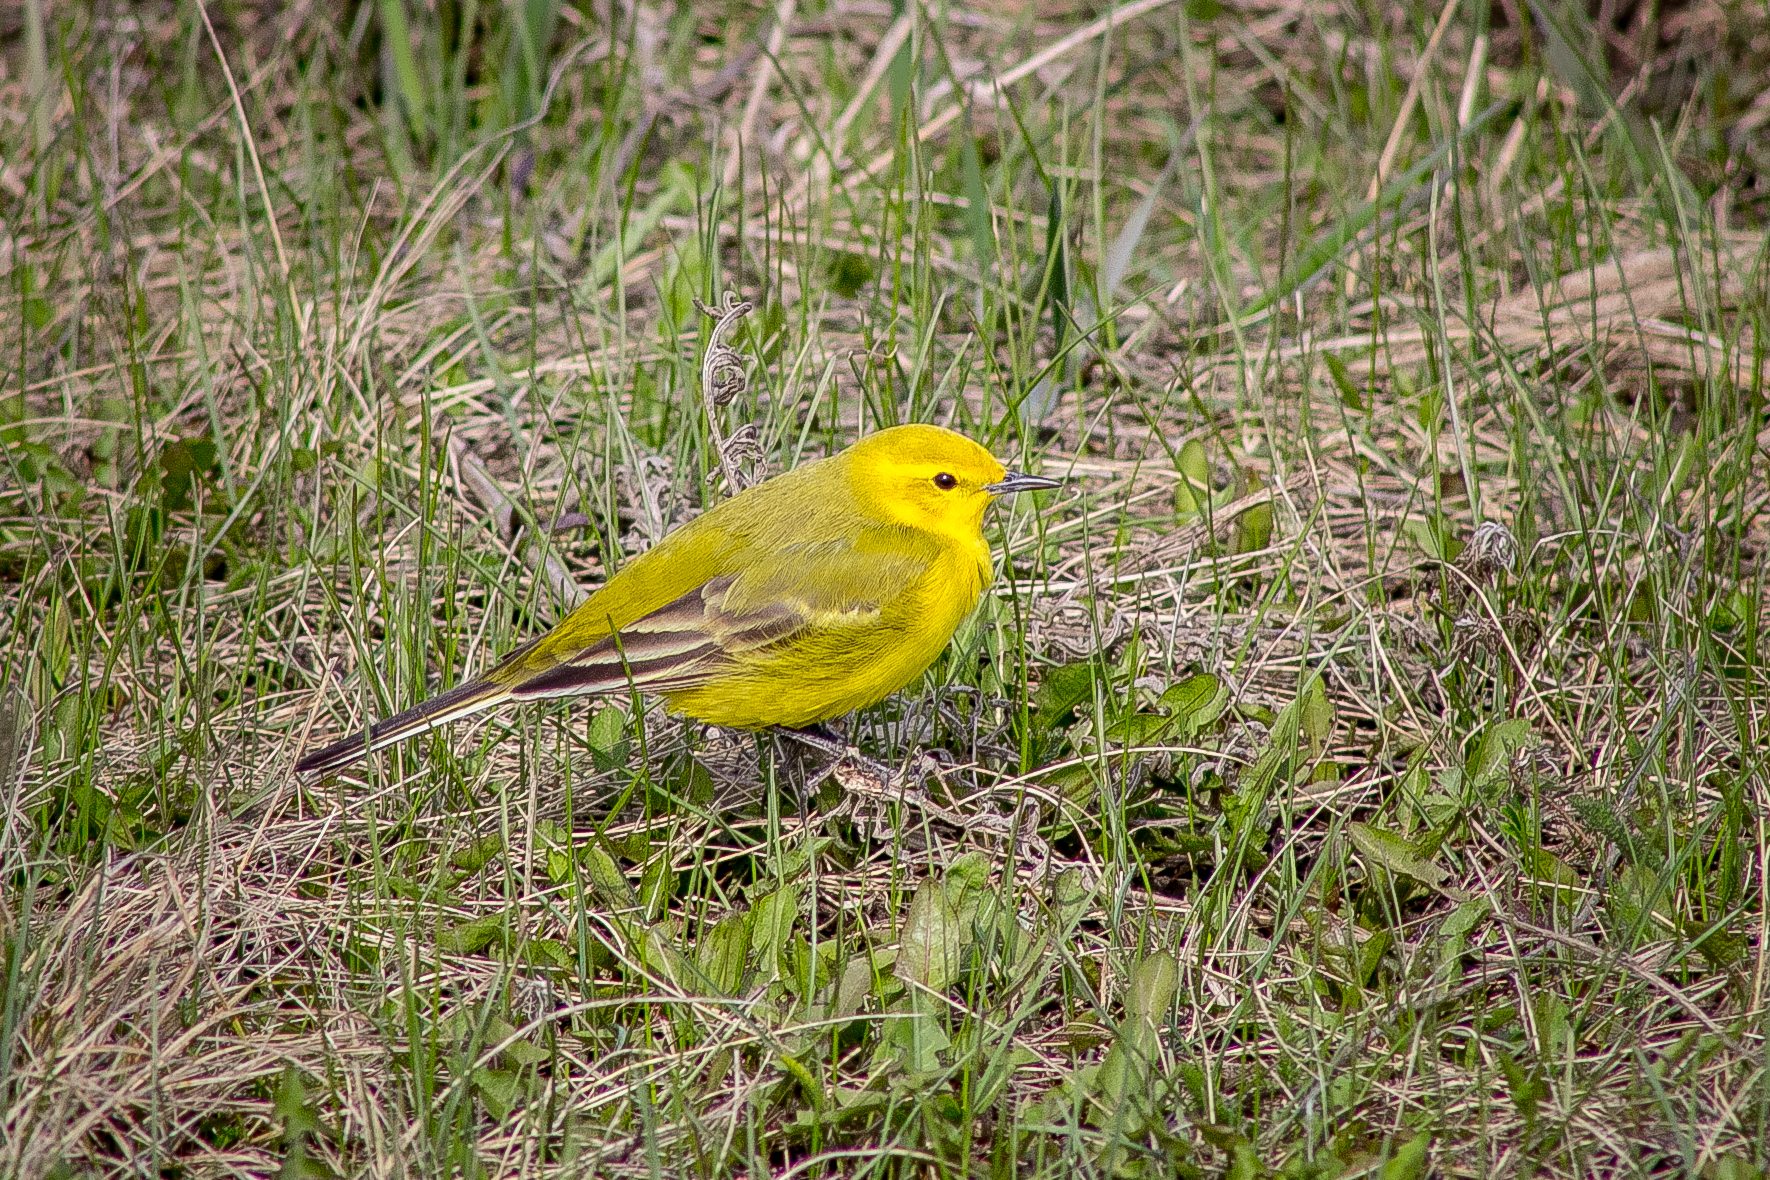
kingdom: Animalia
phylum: Chordata
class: Aves
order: Passeriformes
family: Motacillidae
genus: Motacilla
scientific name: Motacilla flava
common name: Western yellow wagtail
